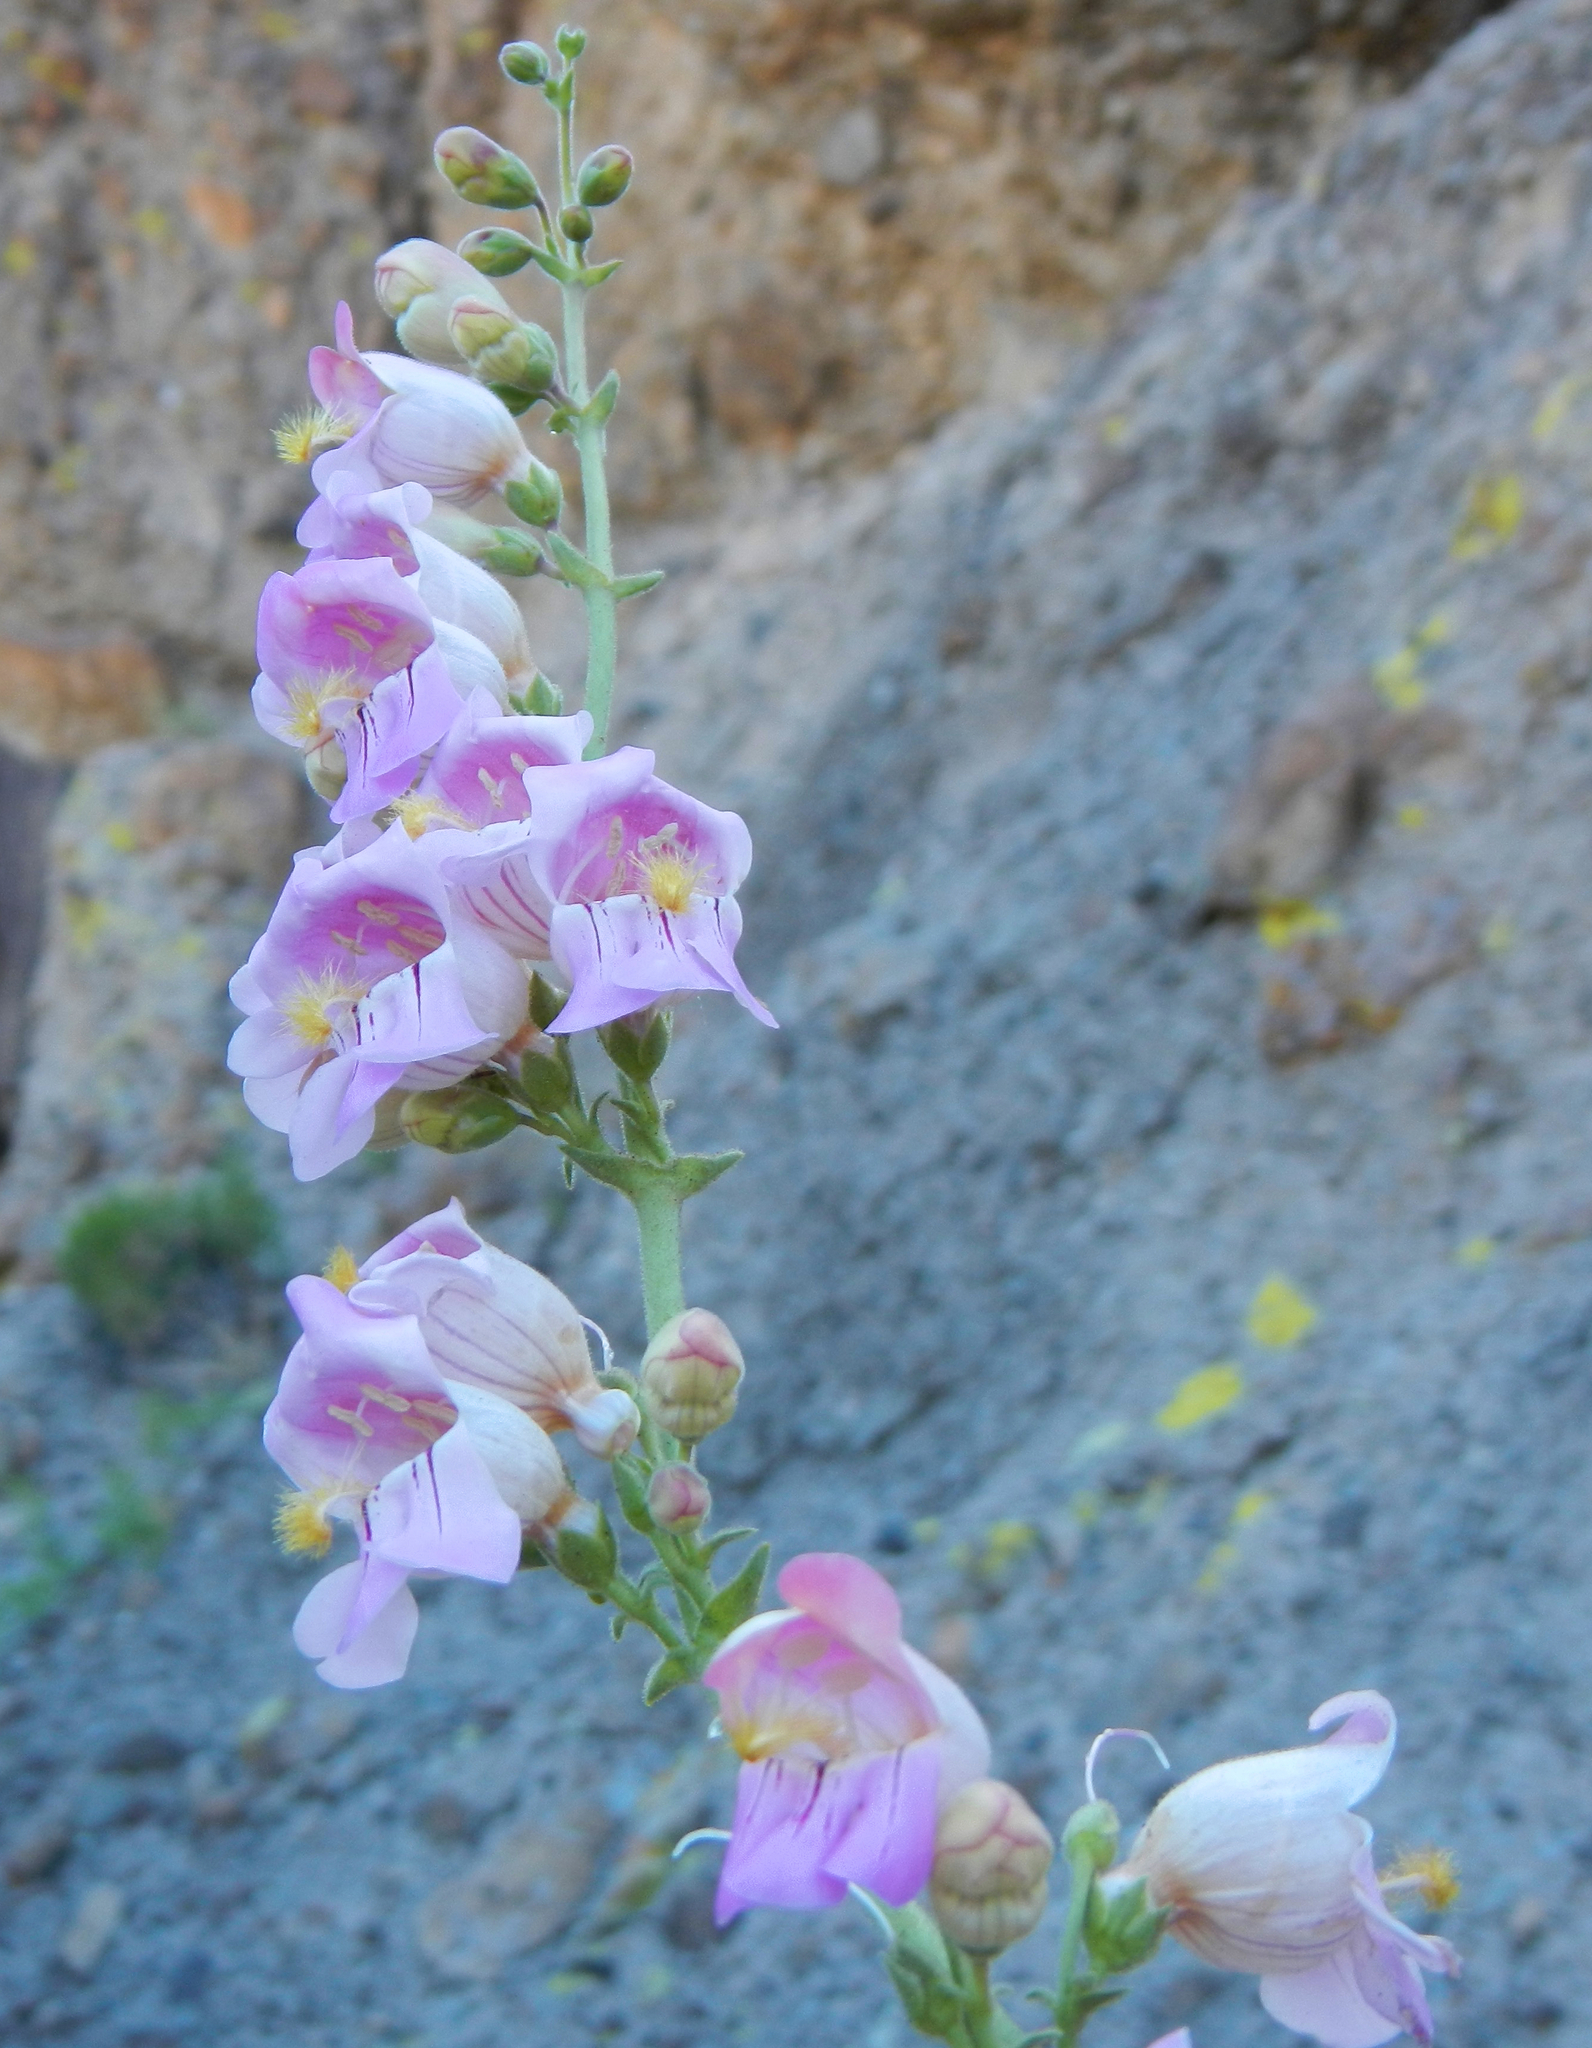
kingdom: Plantae
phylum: Tracheophyta
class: Magnoliopsida
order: Lamiales
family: Plantaginaceae
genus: Penstemon
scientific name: Penstemon palmeri
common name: Palmer penstemon
